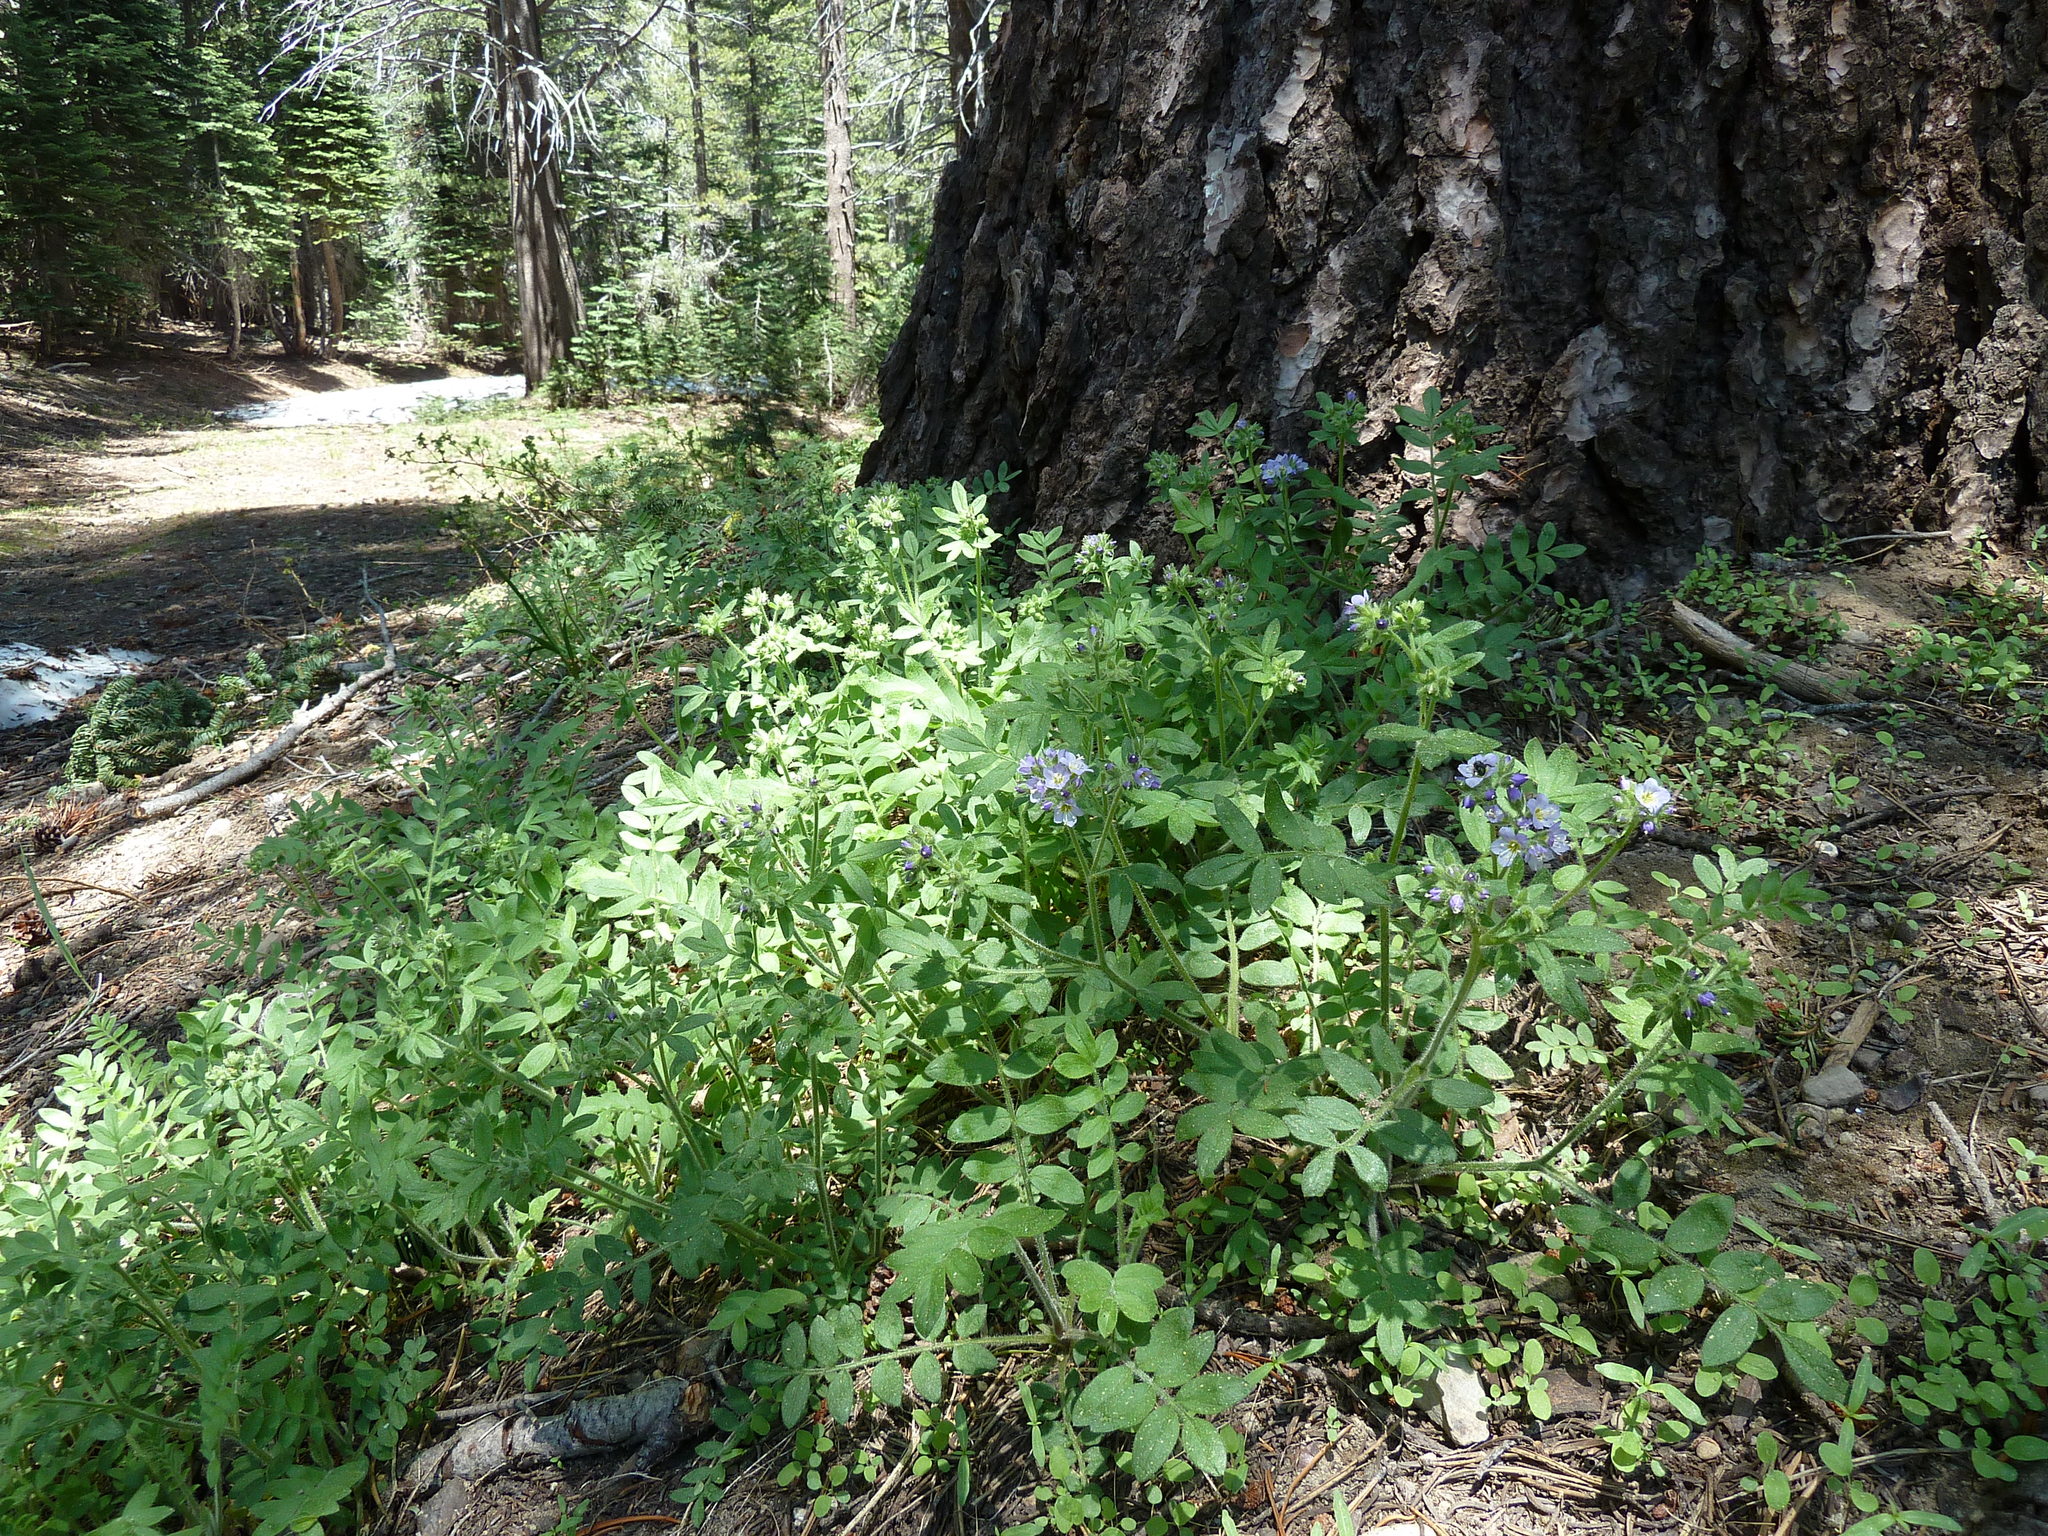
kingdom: Plantae
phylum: Tracheophyta
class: Magnoliopsida
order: Ericales
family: Polemoniaceae
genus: Polemonium
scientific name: Polemonium californicum
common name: California jacob's ladder
